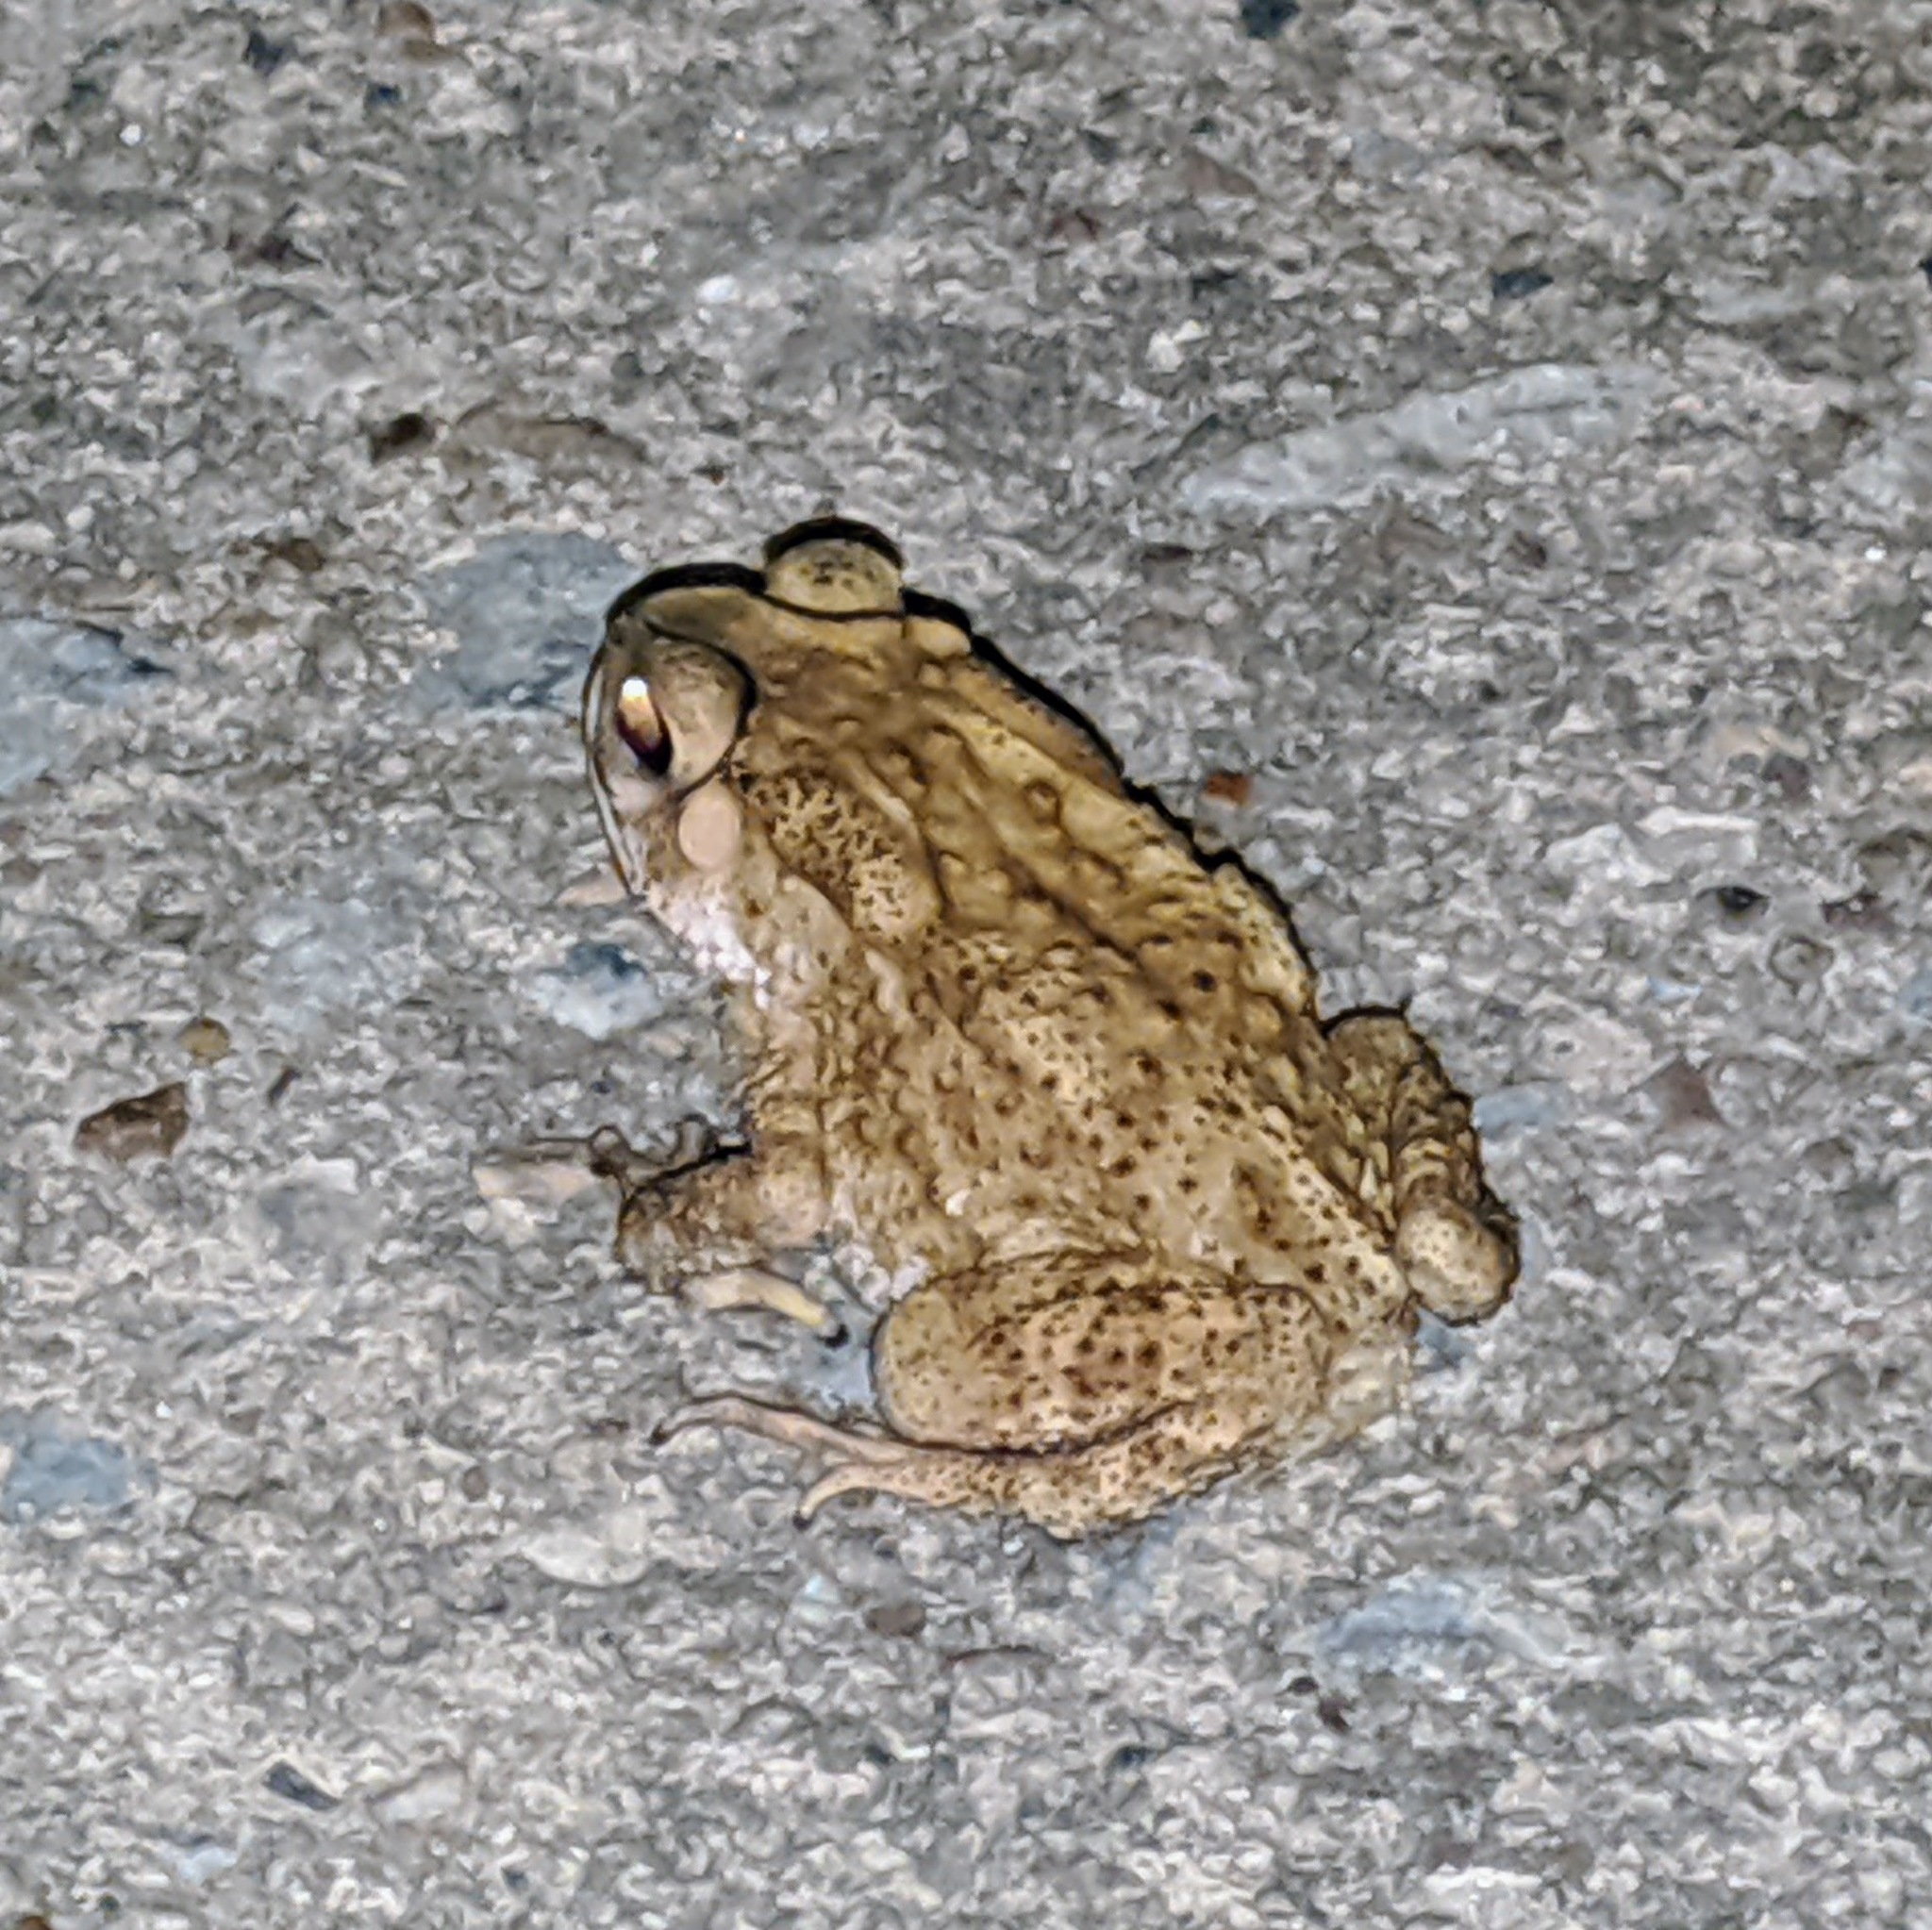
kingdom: Animalia
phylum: Chordata
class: Amphibia
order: Anura
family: Bufonidae
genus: Duttaphrynus
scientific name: Duttaphrynus melanostictus
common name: Common sunda toad
